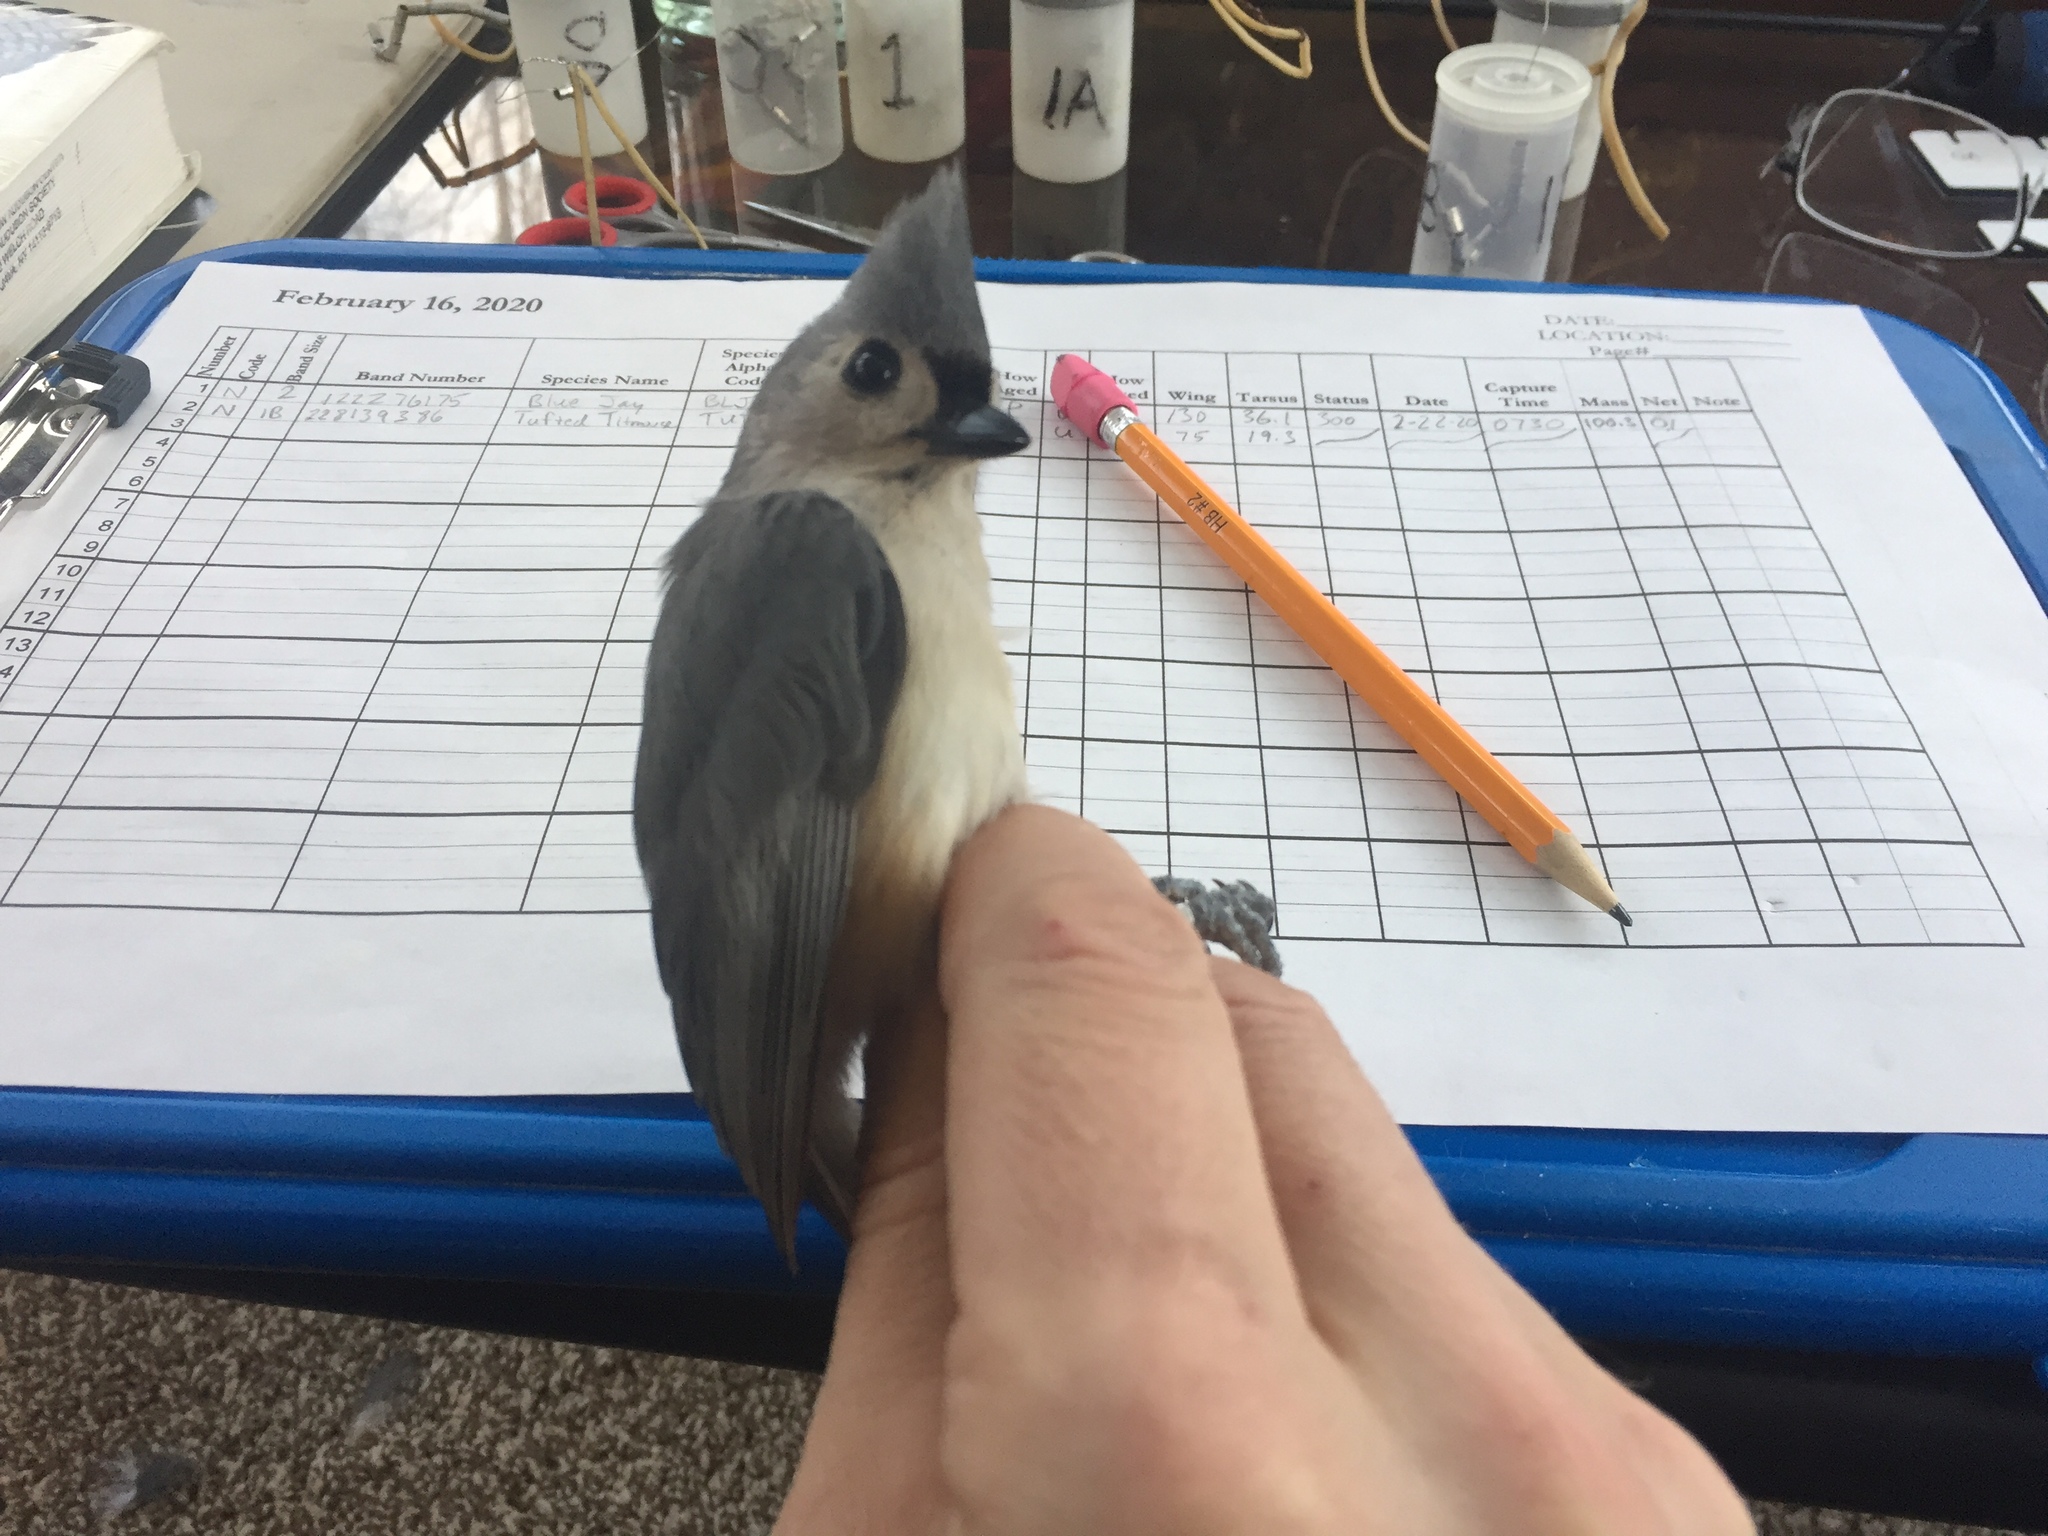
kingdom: Animalia
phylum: Chordata
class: Aves
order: Passeriformes
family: Paridae
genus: Baeolophus
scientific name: Baeolophus bicolor
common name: Tufted titmouse
